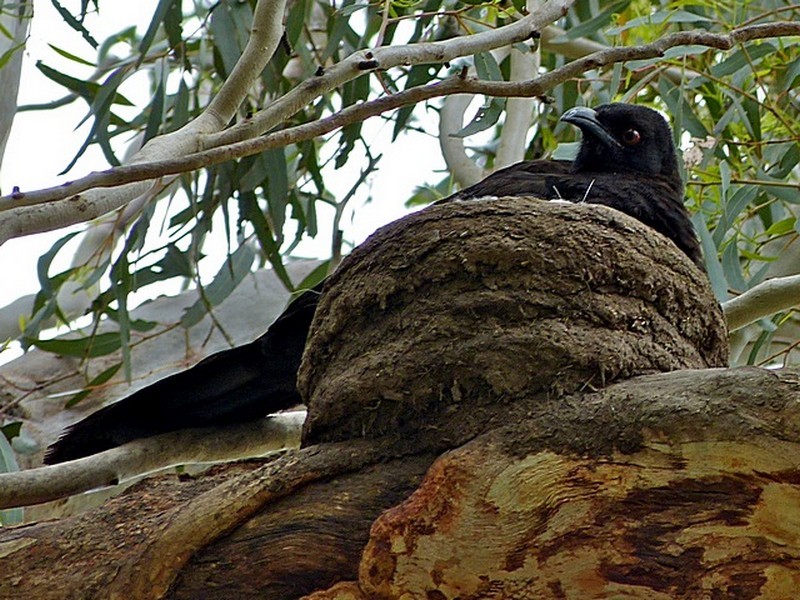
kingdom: Animalia
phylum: Chordata
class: Aves
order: Passeriformes
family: Corcoracidae
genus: Corcorax
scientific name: Corcorax melanoramphos
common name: White-winged chough
